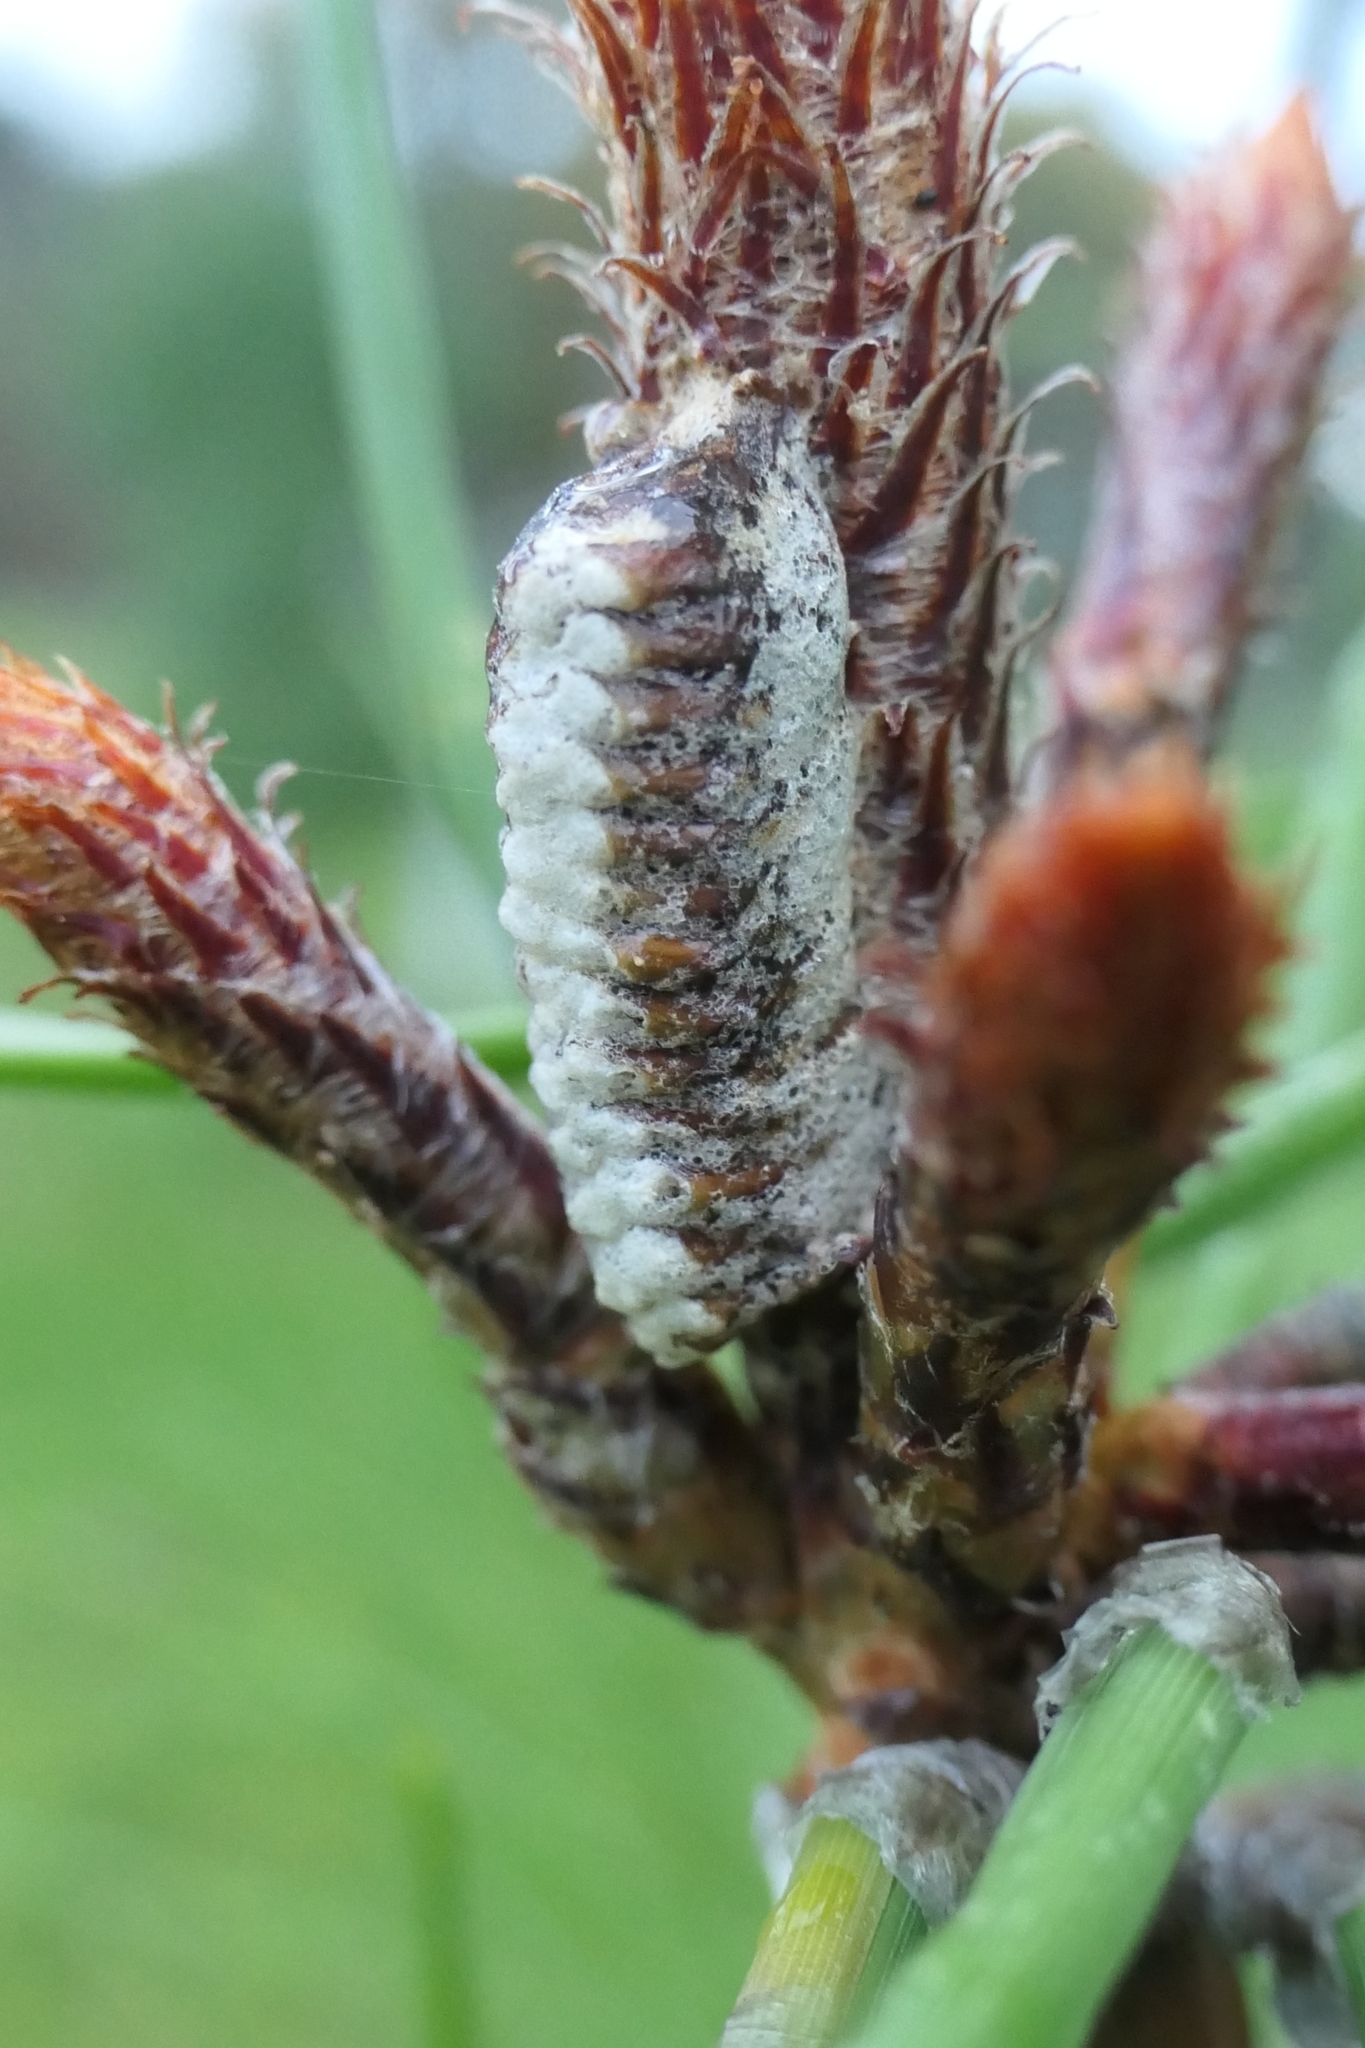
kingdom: Animalia
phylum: Arthropoda
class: Insecta
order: Mantodea
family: Mantidae
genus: Orthodera
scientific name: Orthodera novaezealandiae
